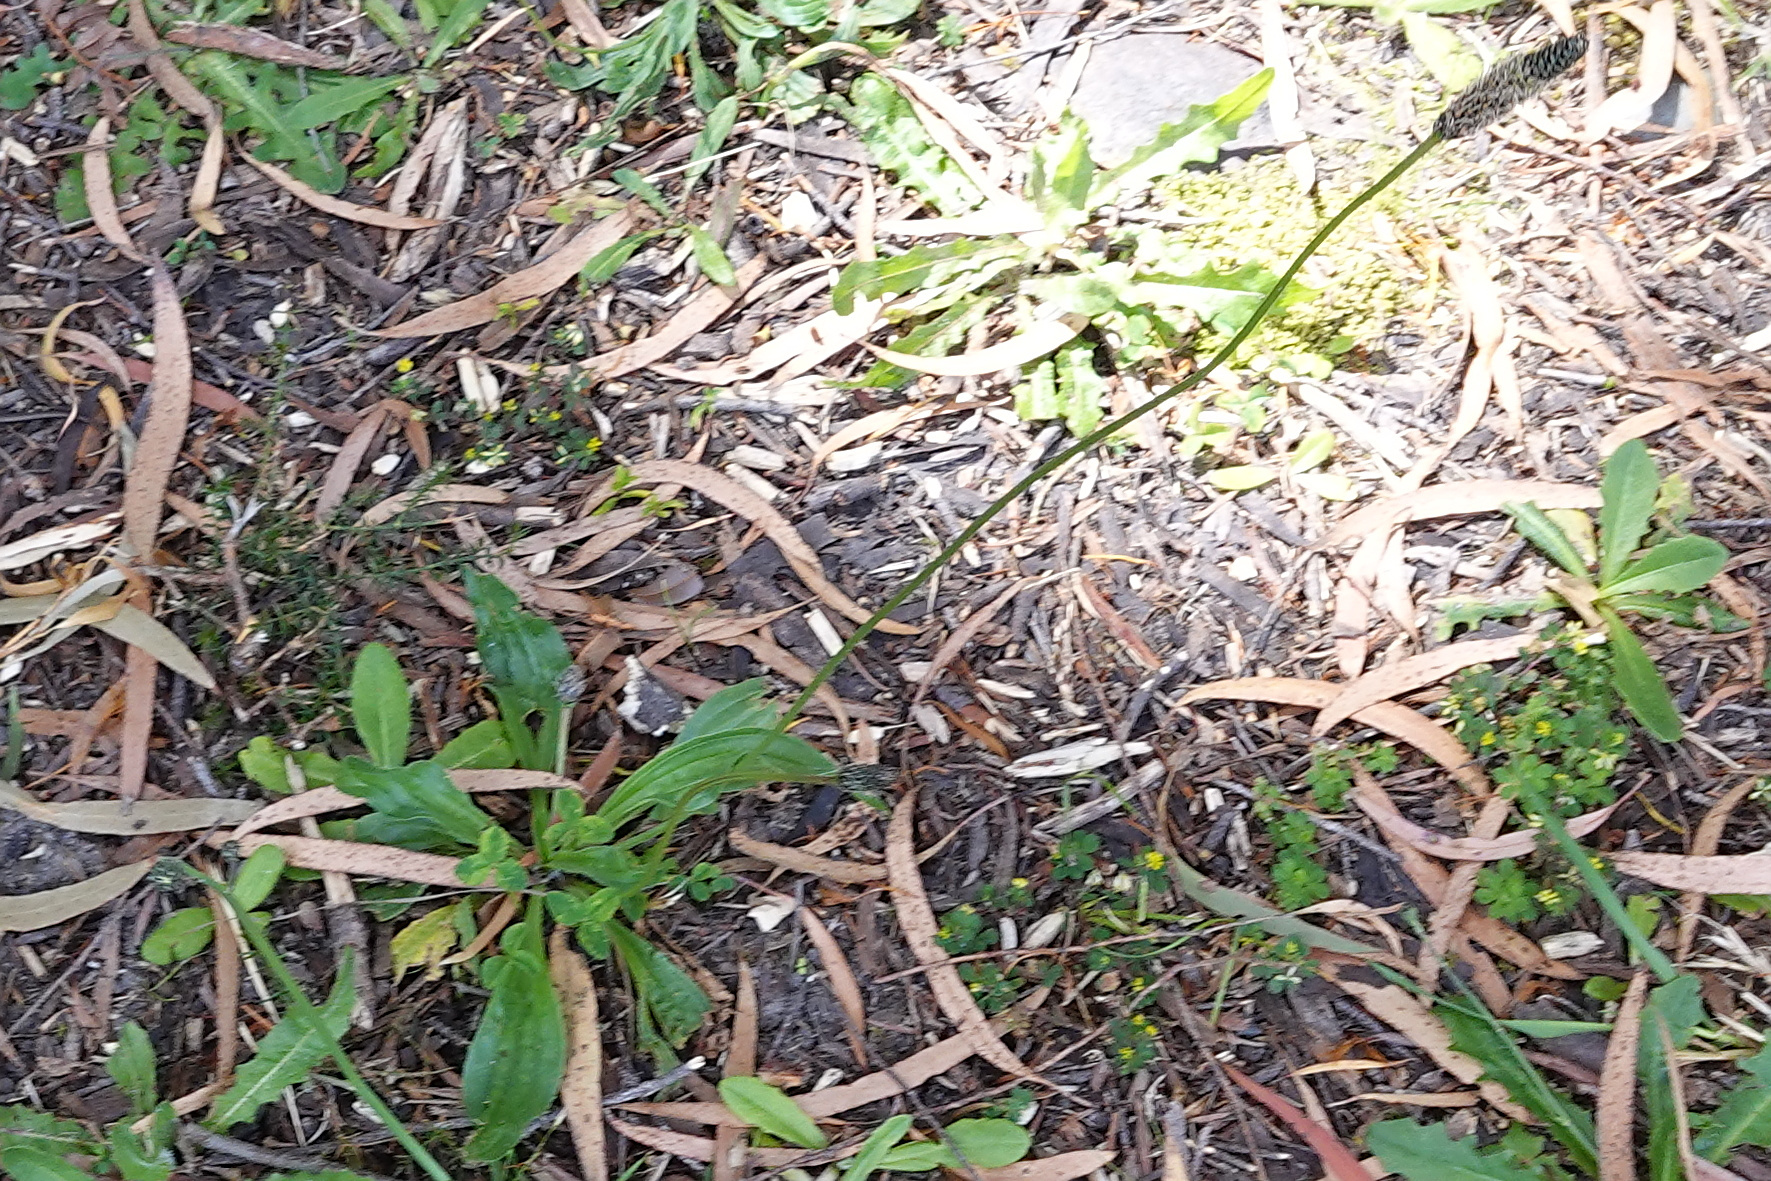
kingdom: Plantae
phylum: Tracheophyta
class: Magnoliopsida
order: Lamiales
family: Plantaginaceae
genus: Plantago
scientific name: Plantago lanceolata
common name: Ribwort plantain
